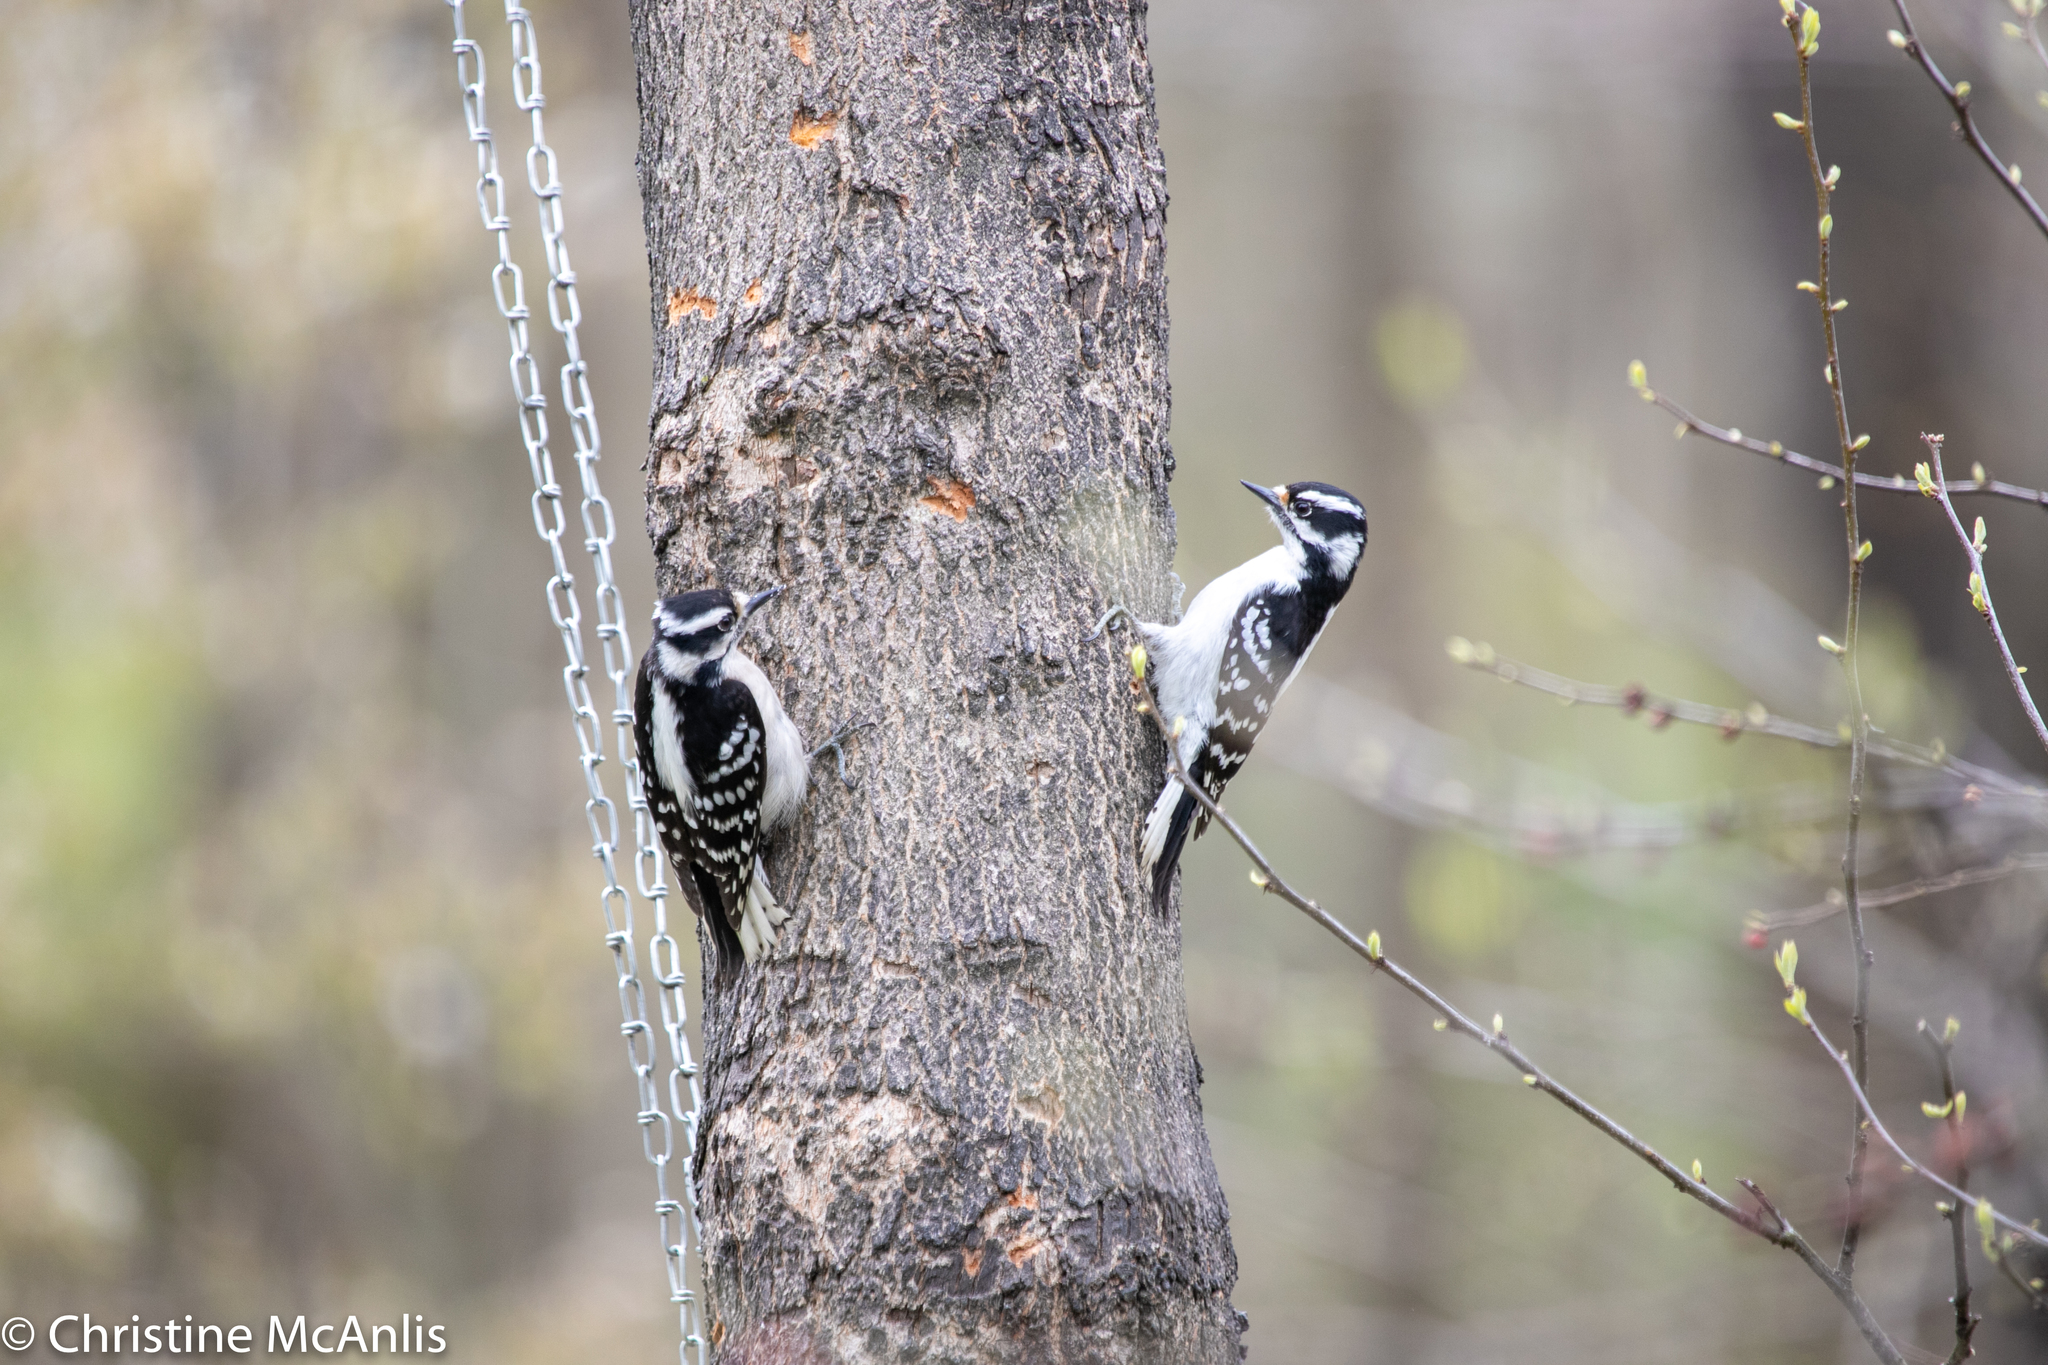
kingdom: Animalia
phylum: Chordata
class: Aves
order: Piciformes
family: Picidae
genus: Dryobates
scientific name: Dryobates pubescens
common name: Downy woodpecker
